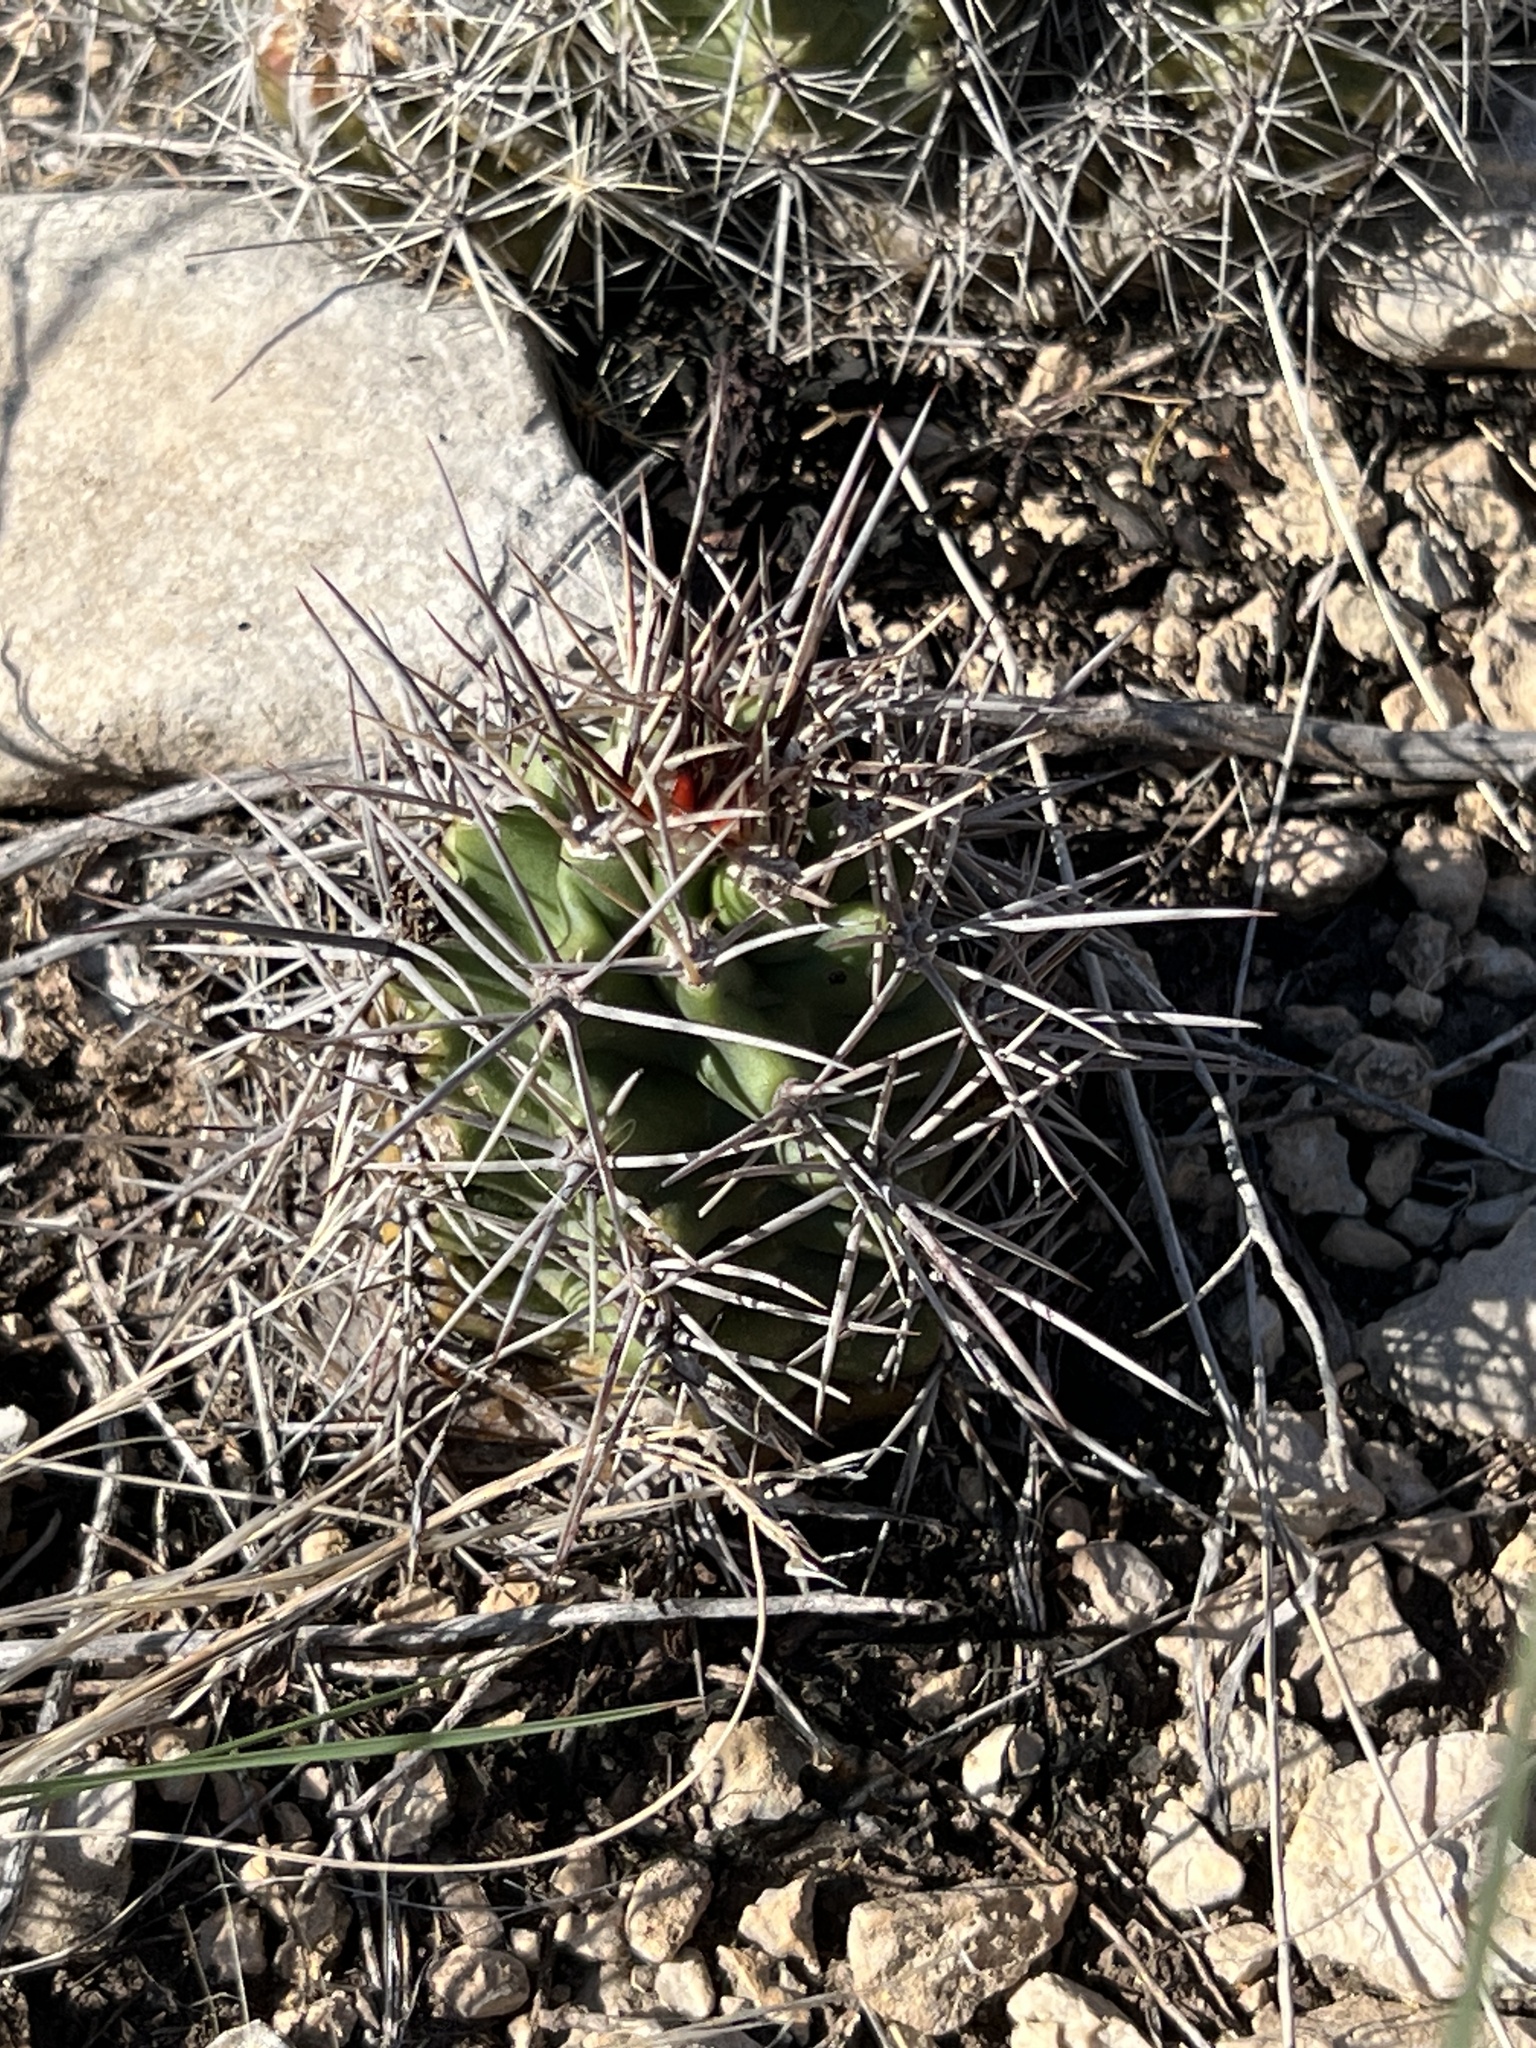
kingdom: Plantae
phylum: Tracheophyta
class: Magnoliopsida
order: Caryophyllales
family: Cactaceae
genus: Echinocereus
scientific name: Echinocereus coccineus
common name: Scarlet hedgehog cactus
